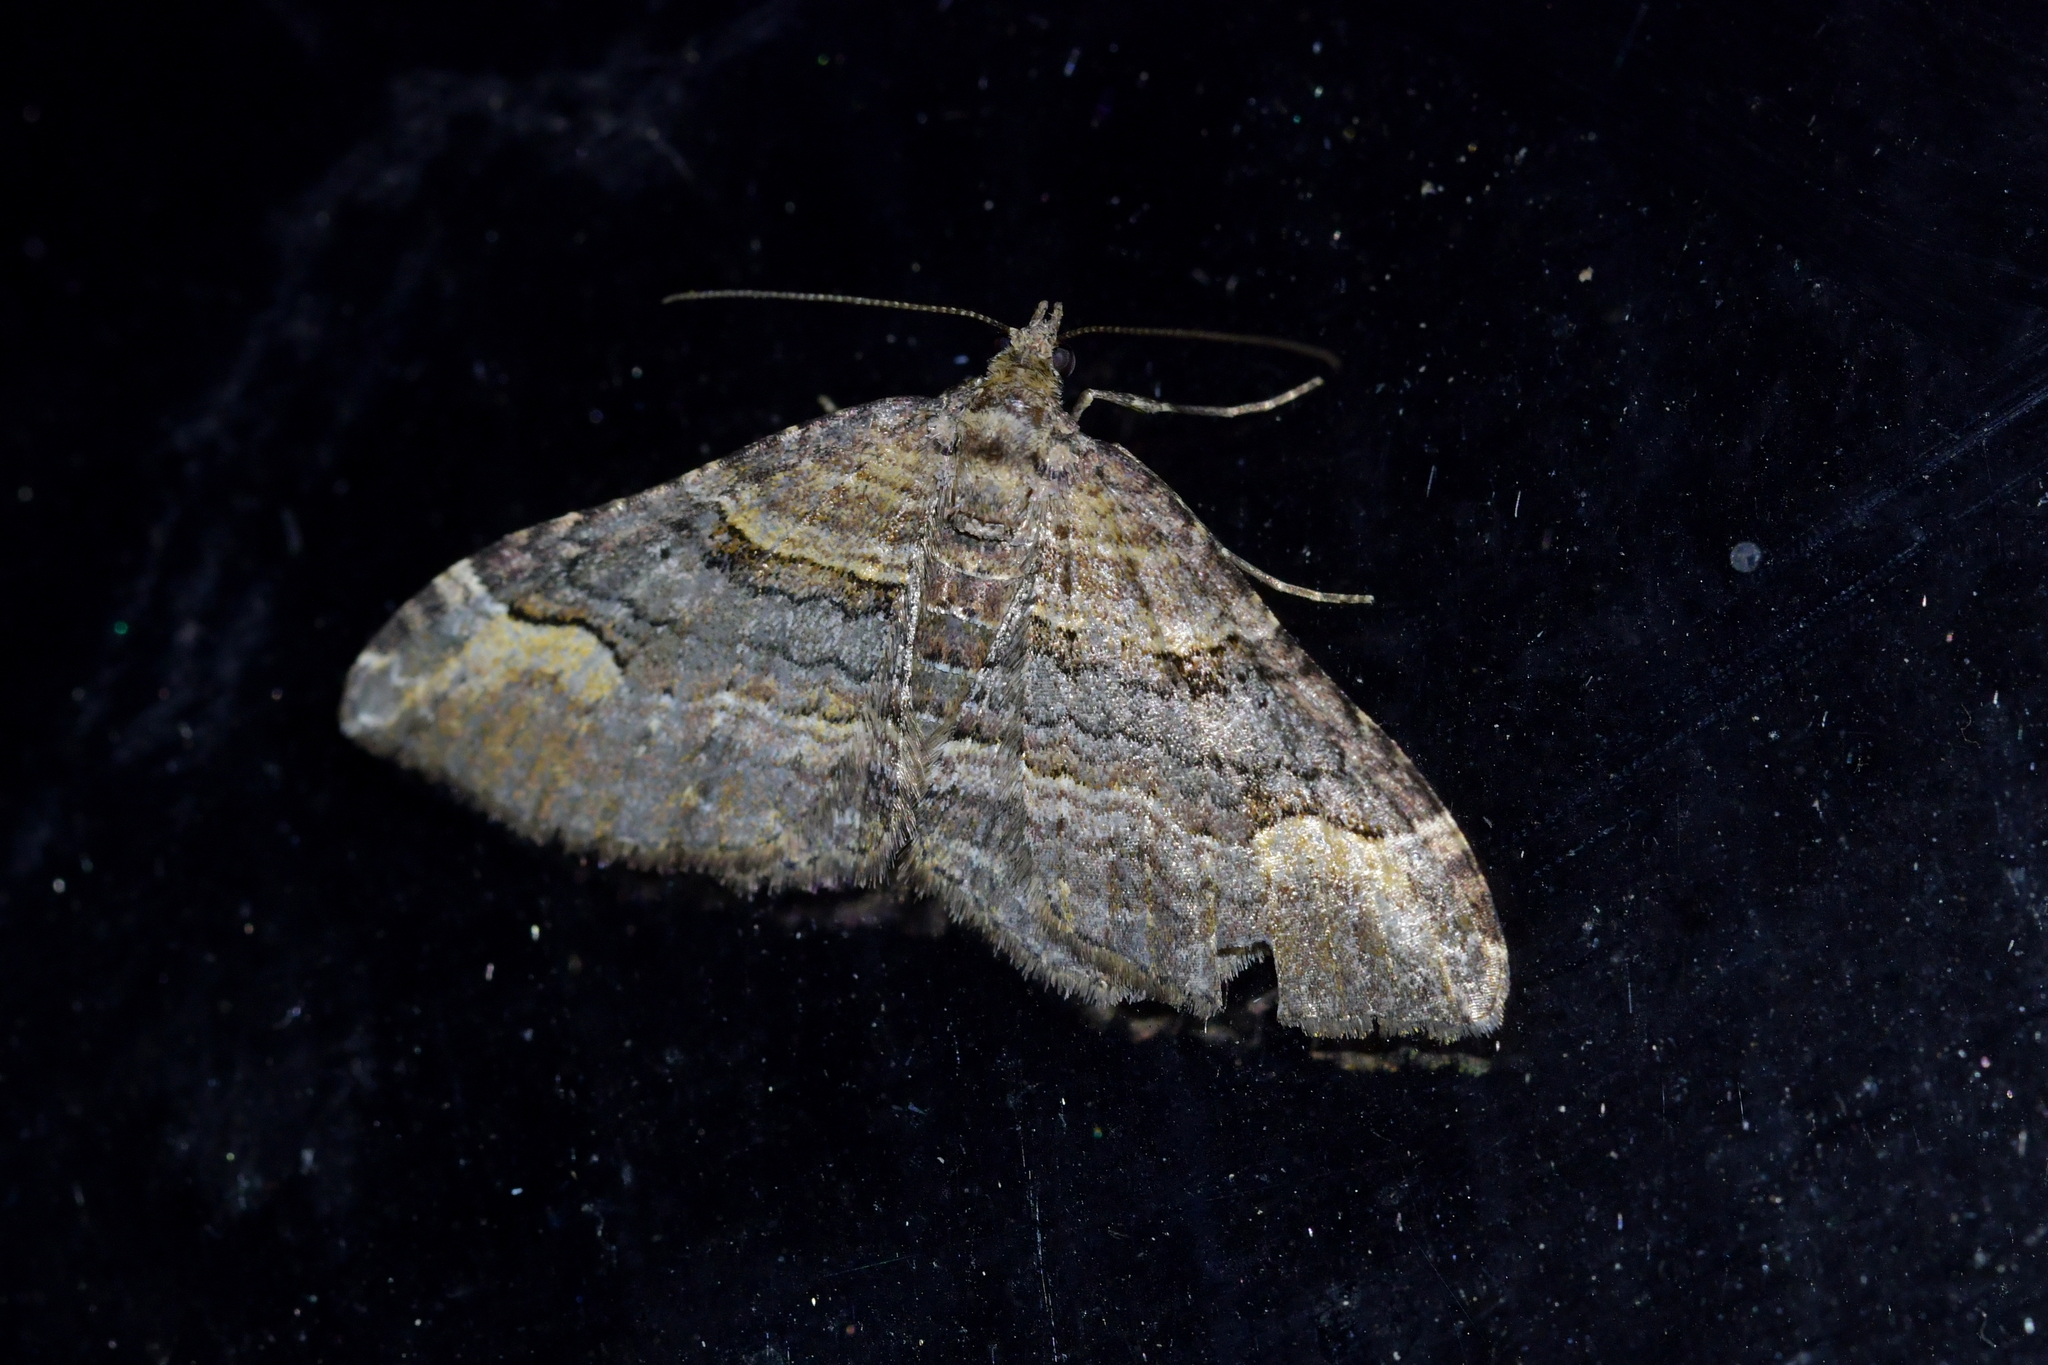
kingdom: Animalia
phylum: Arthropoda
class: Insecta
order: Lepidoptera
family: Geometridae
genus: Epyaxa
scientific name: Epyaxa lucidata
